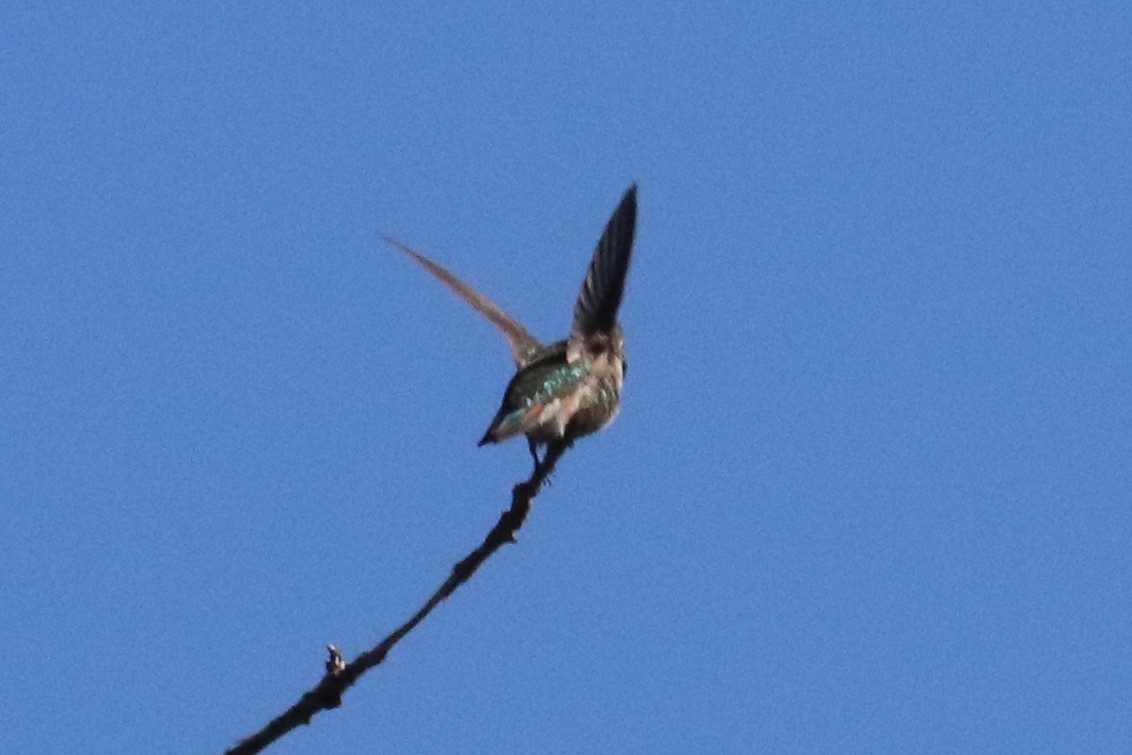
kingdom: Animalia
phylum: Chordata
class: Aves
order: Apodiformes
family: Trochilidae
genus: Selasphorus
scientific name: Selasphorus platycercus
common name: Broad-tailed hummingbird
